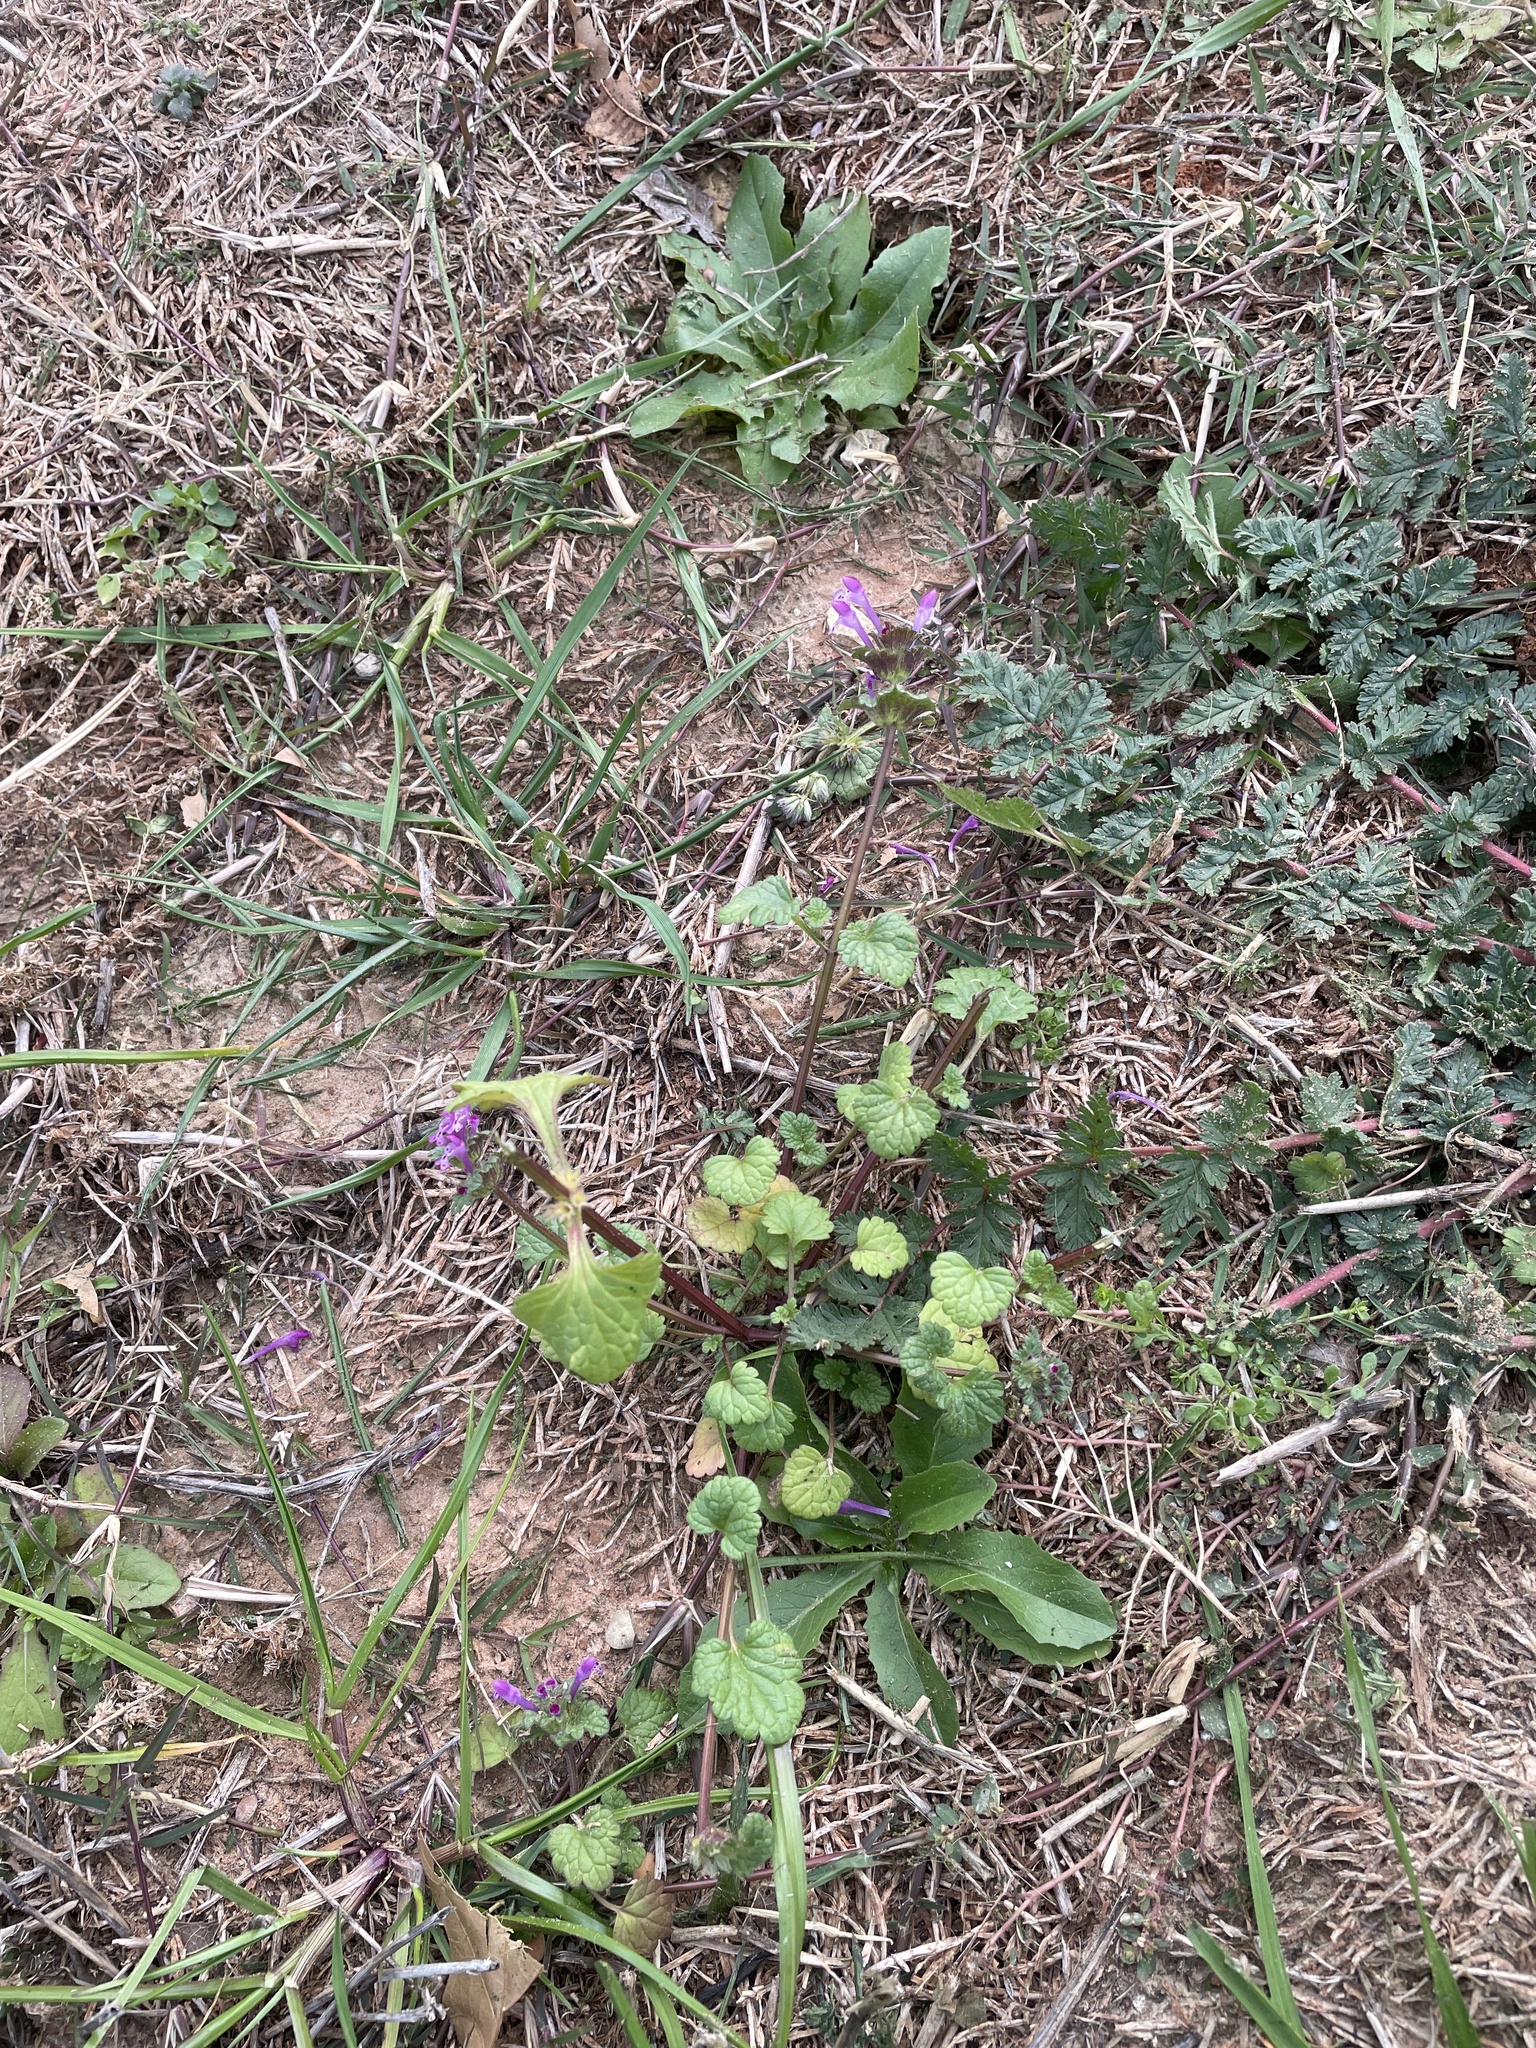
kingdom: Plantae
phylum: Tracheophyta
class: Magnoliopsida
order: Lamiales
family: Lamiaceae
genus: Lamium
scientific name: Lamium amplexicaule
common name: Henbit dead-nettle
